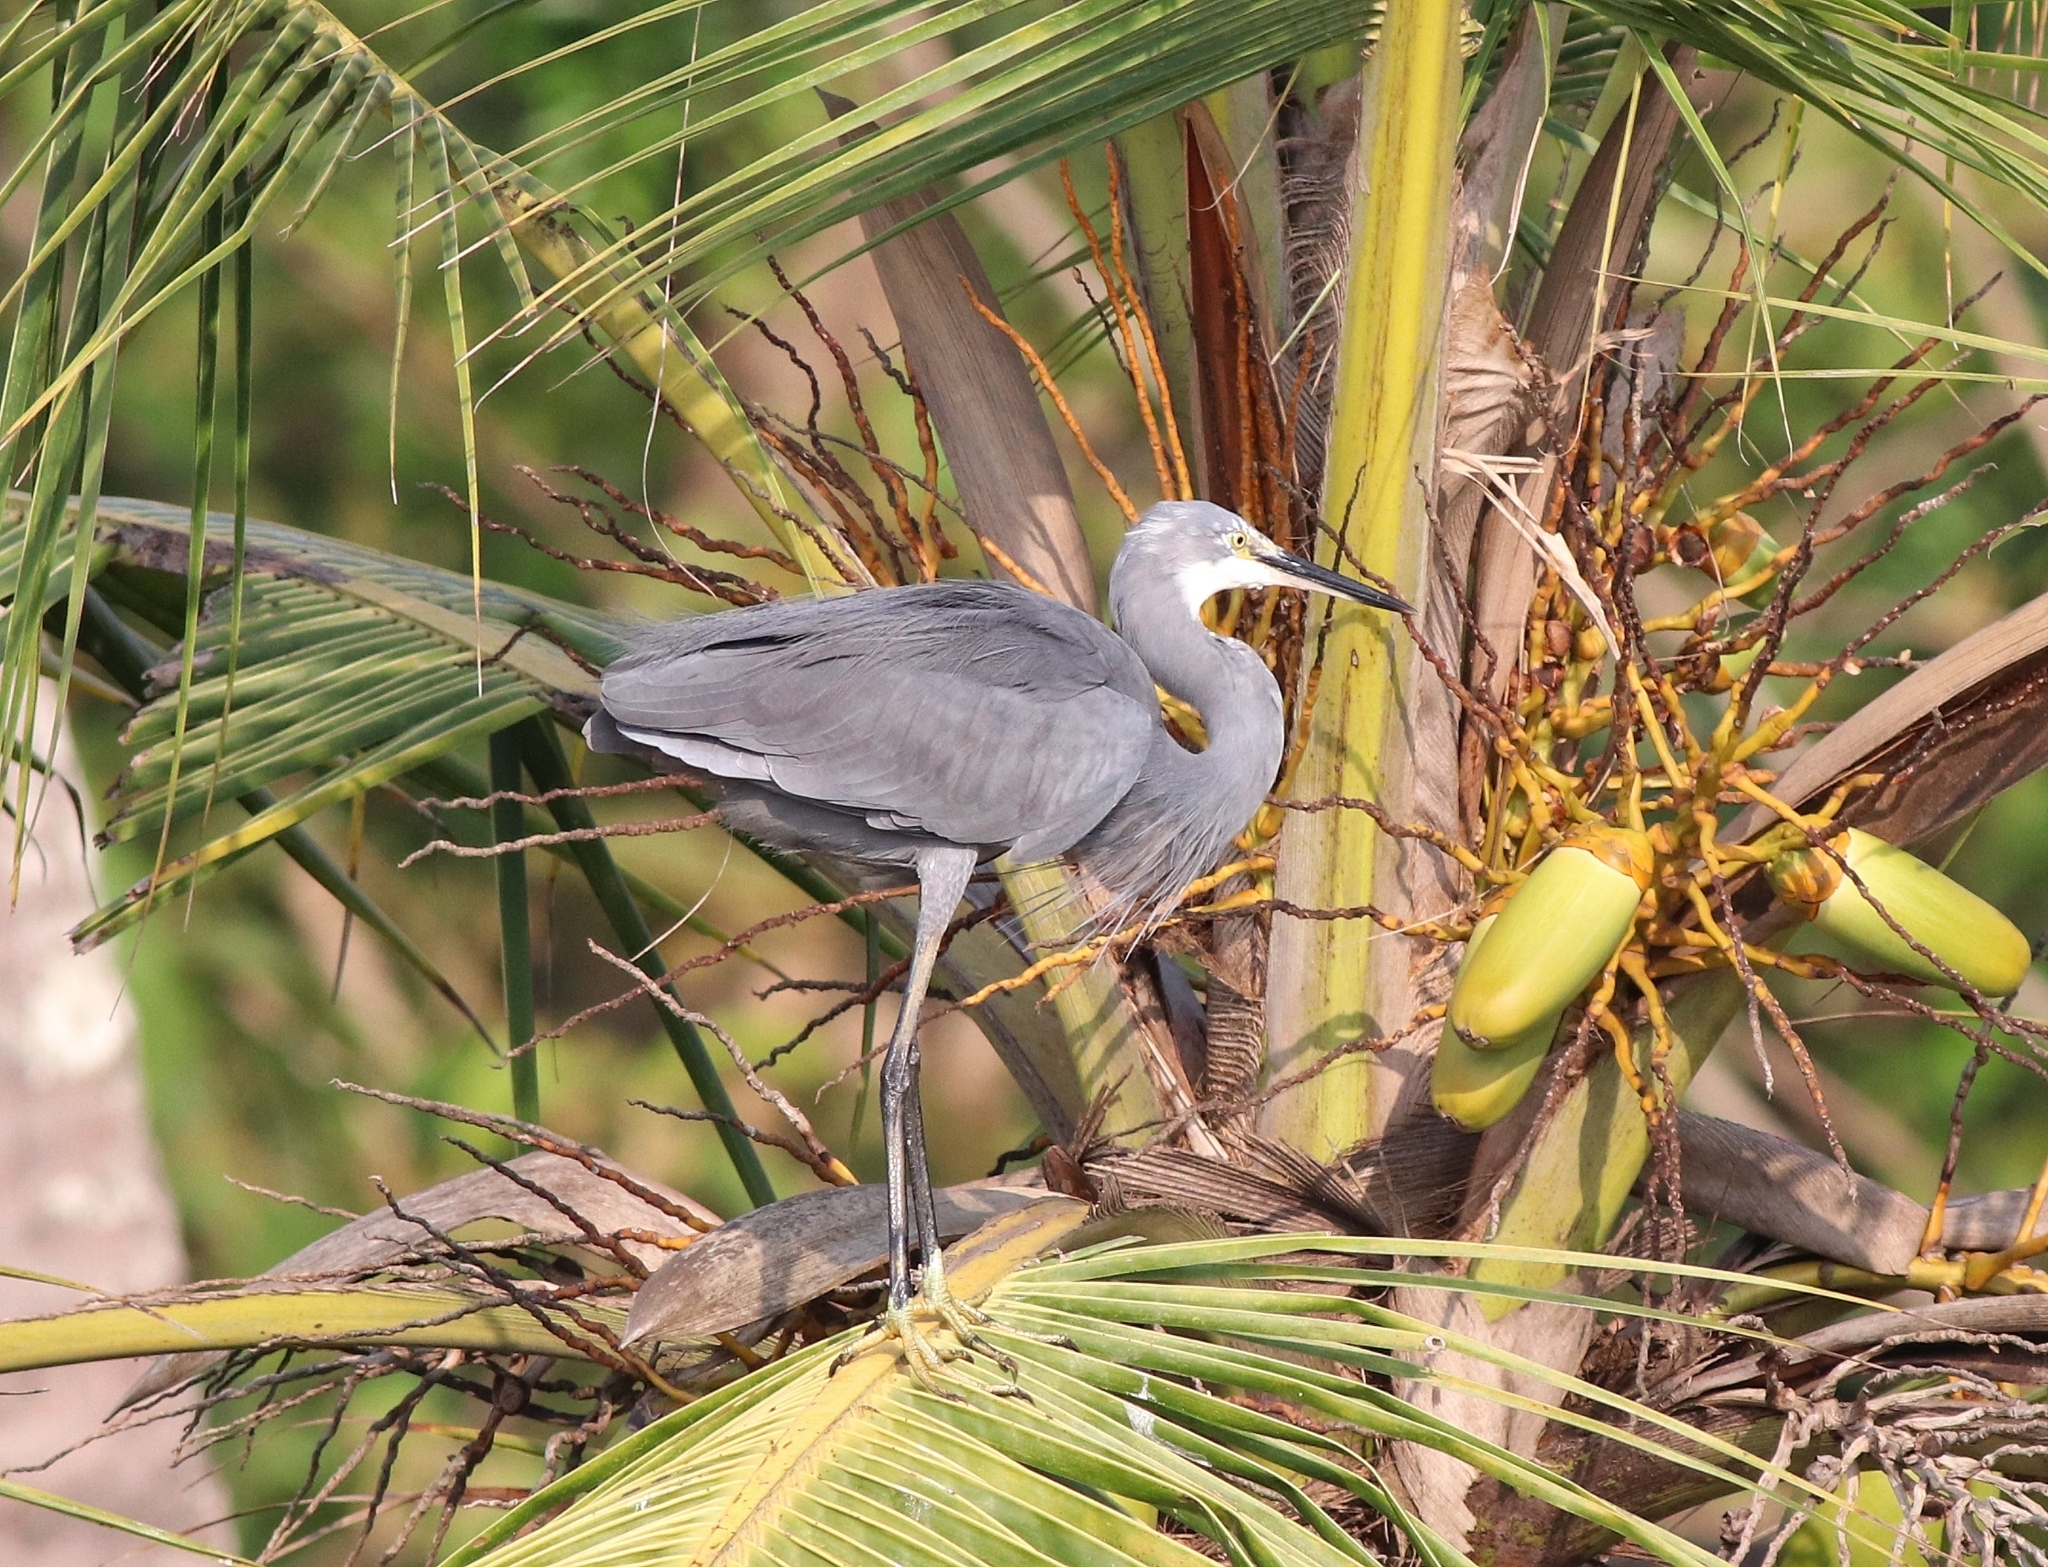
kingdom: Animalia
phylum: Chordata
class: Aves
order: Pelecaniformes
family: Ardeidae
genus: Egretta
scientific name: Egretta garzetta
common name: Little egret
